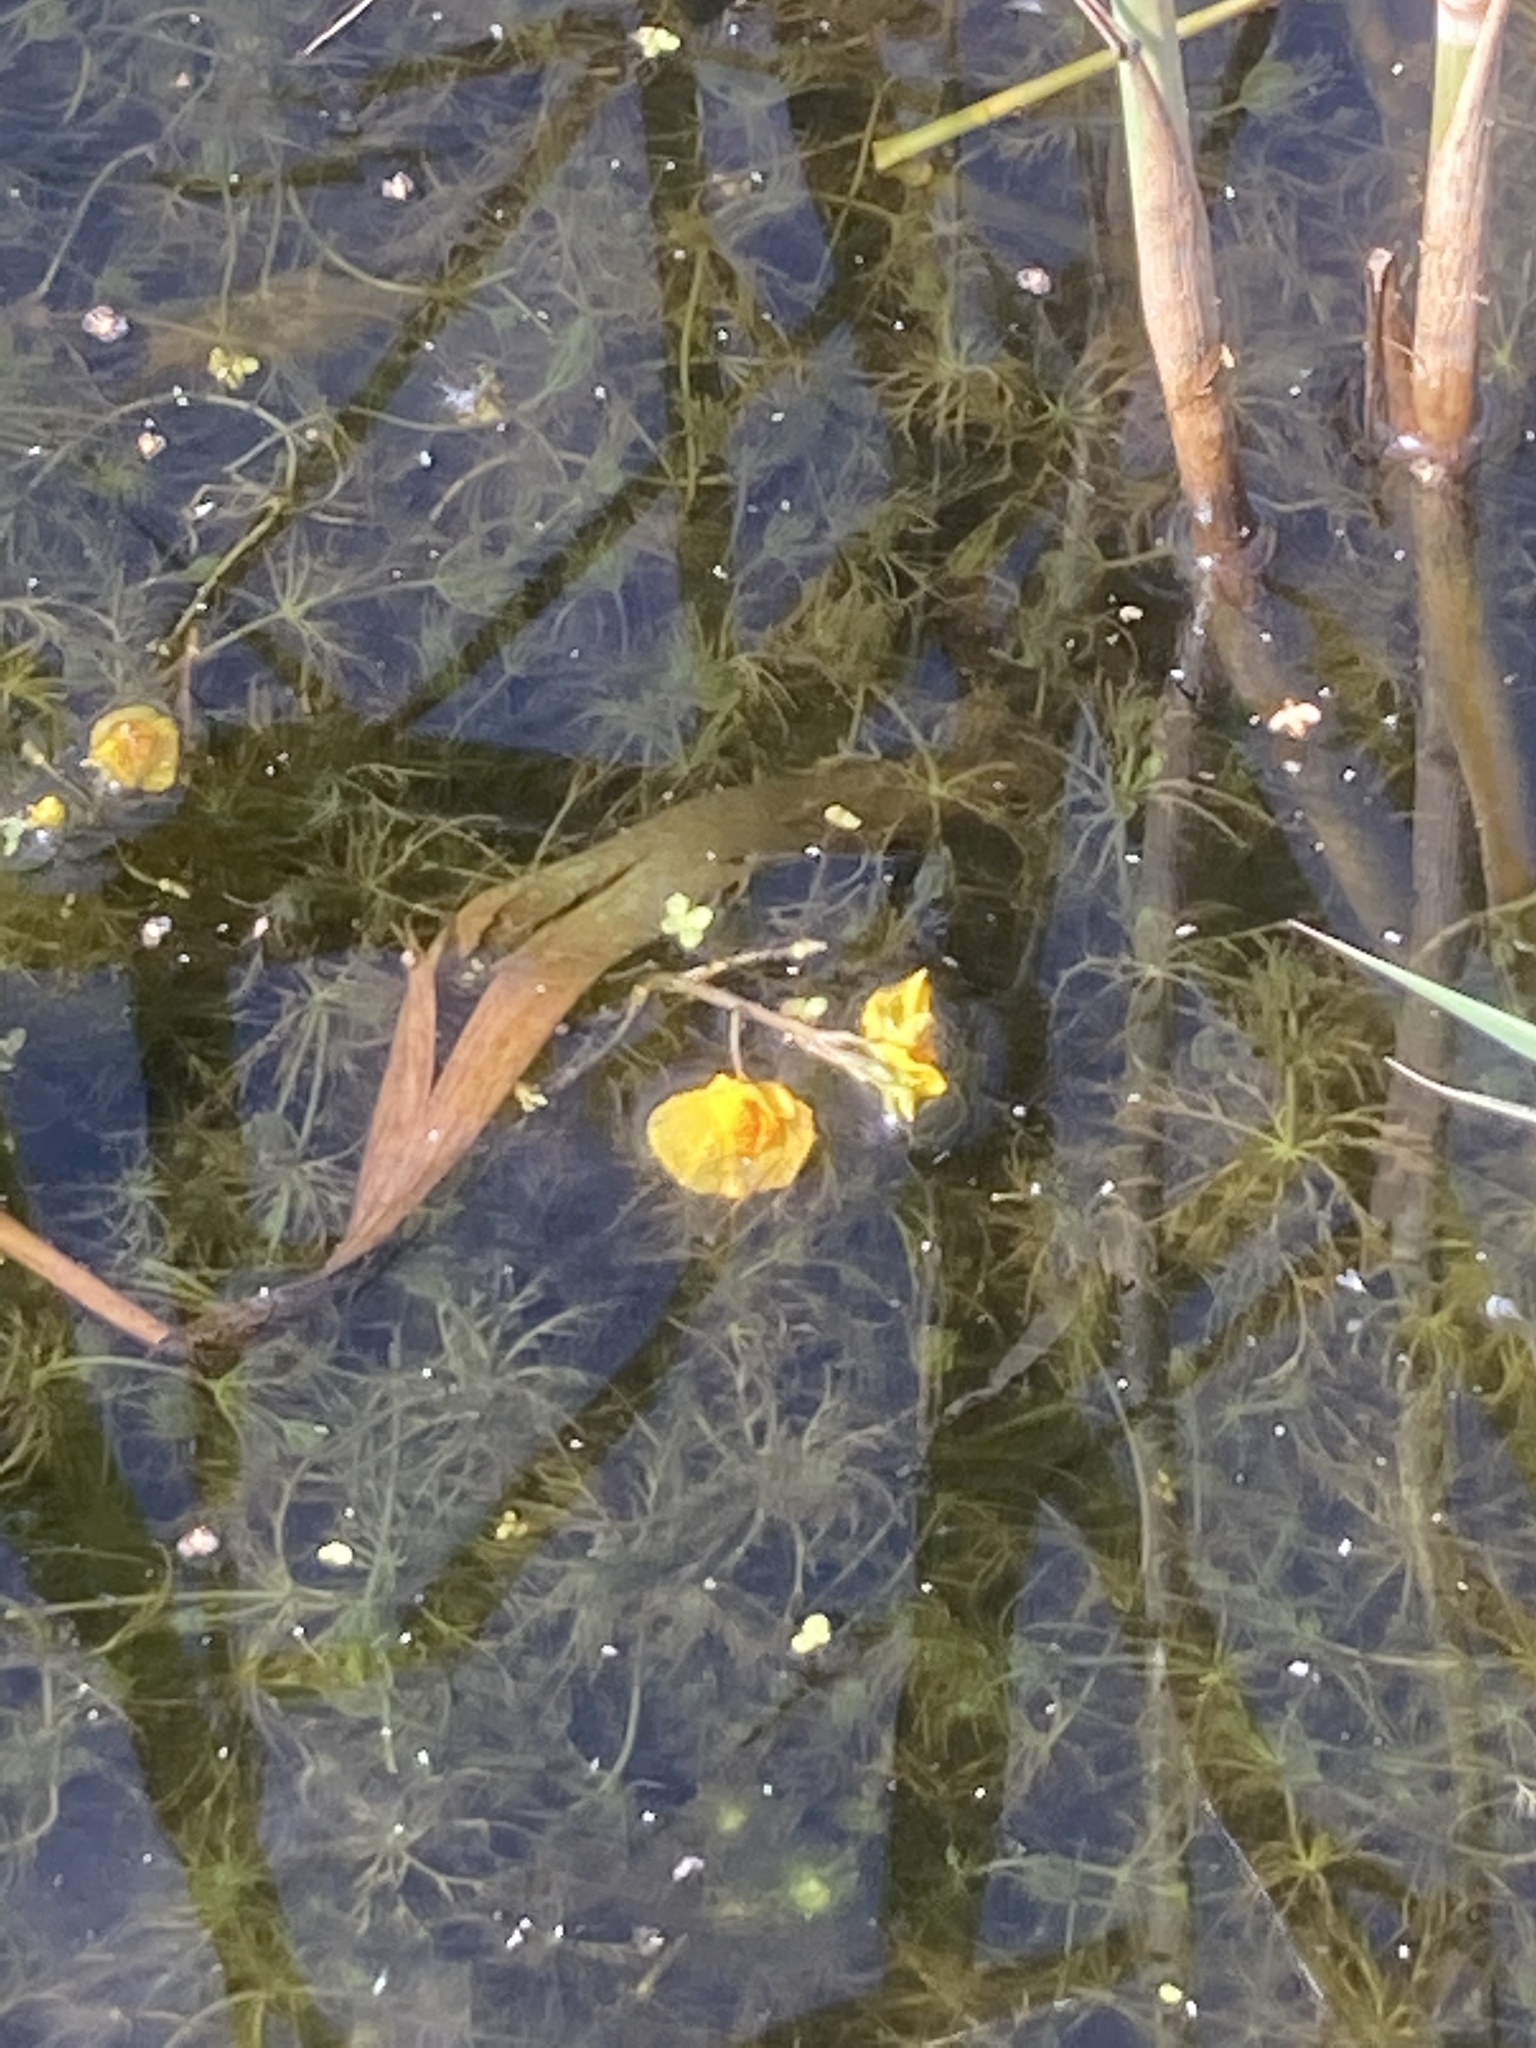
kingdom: Plantae
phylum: Charophyta
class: Charophyceae
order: Charales
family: Characeae
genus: Chara
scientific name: Chara vulgaris
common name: Common stonewort
